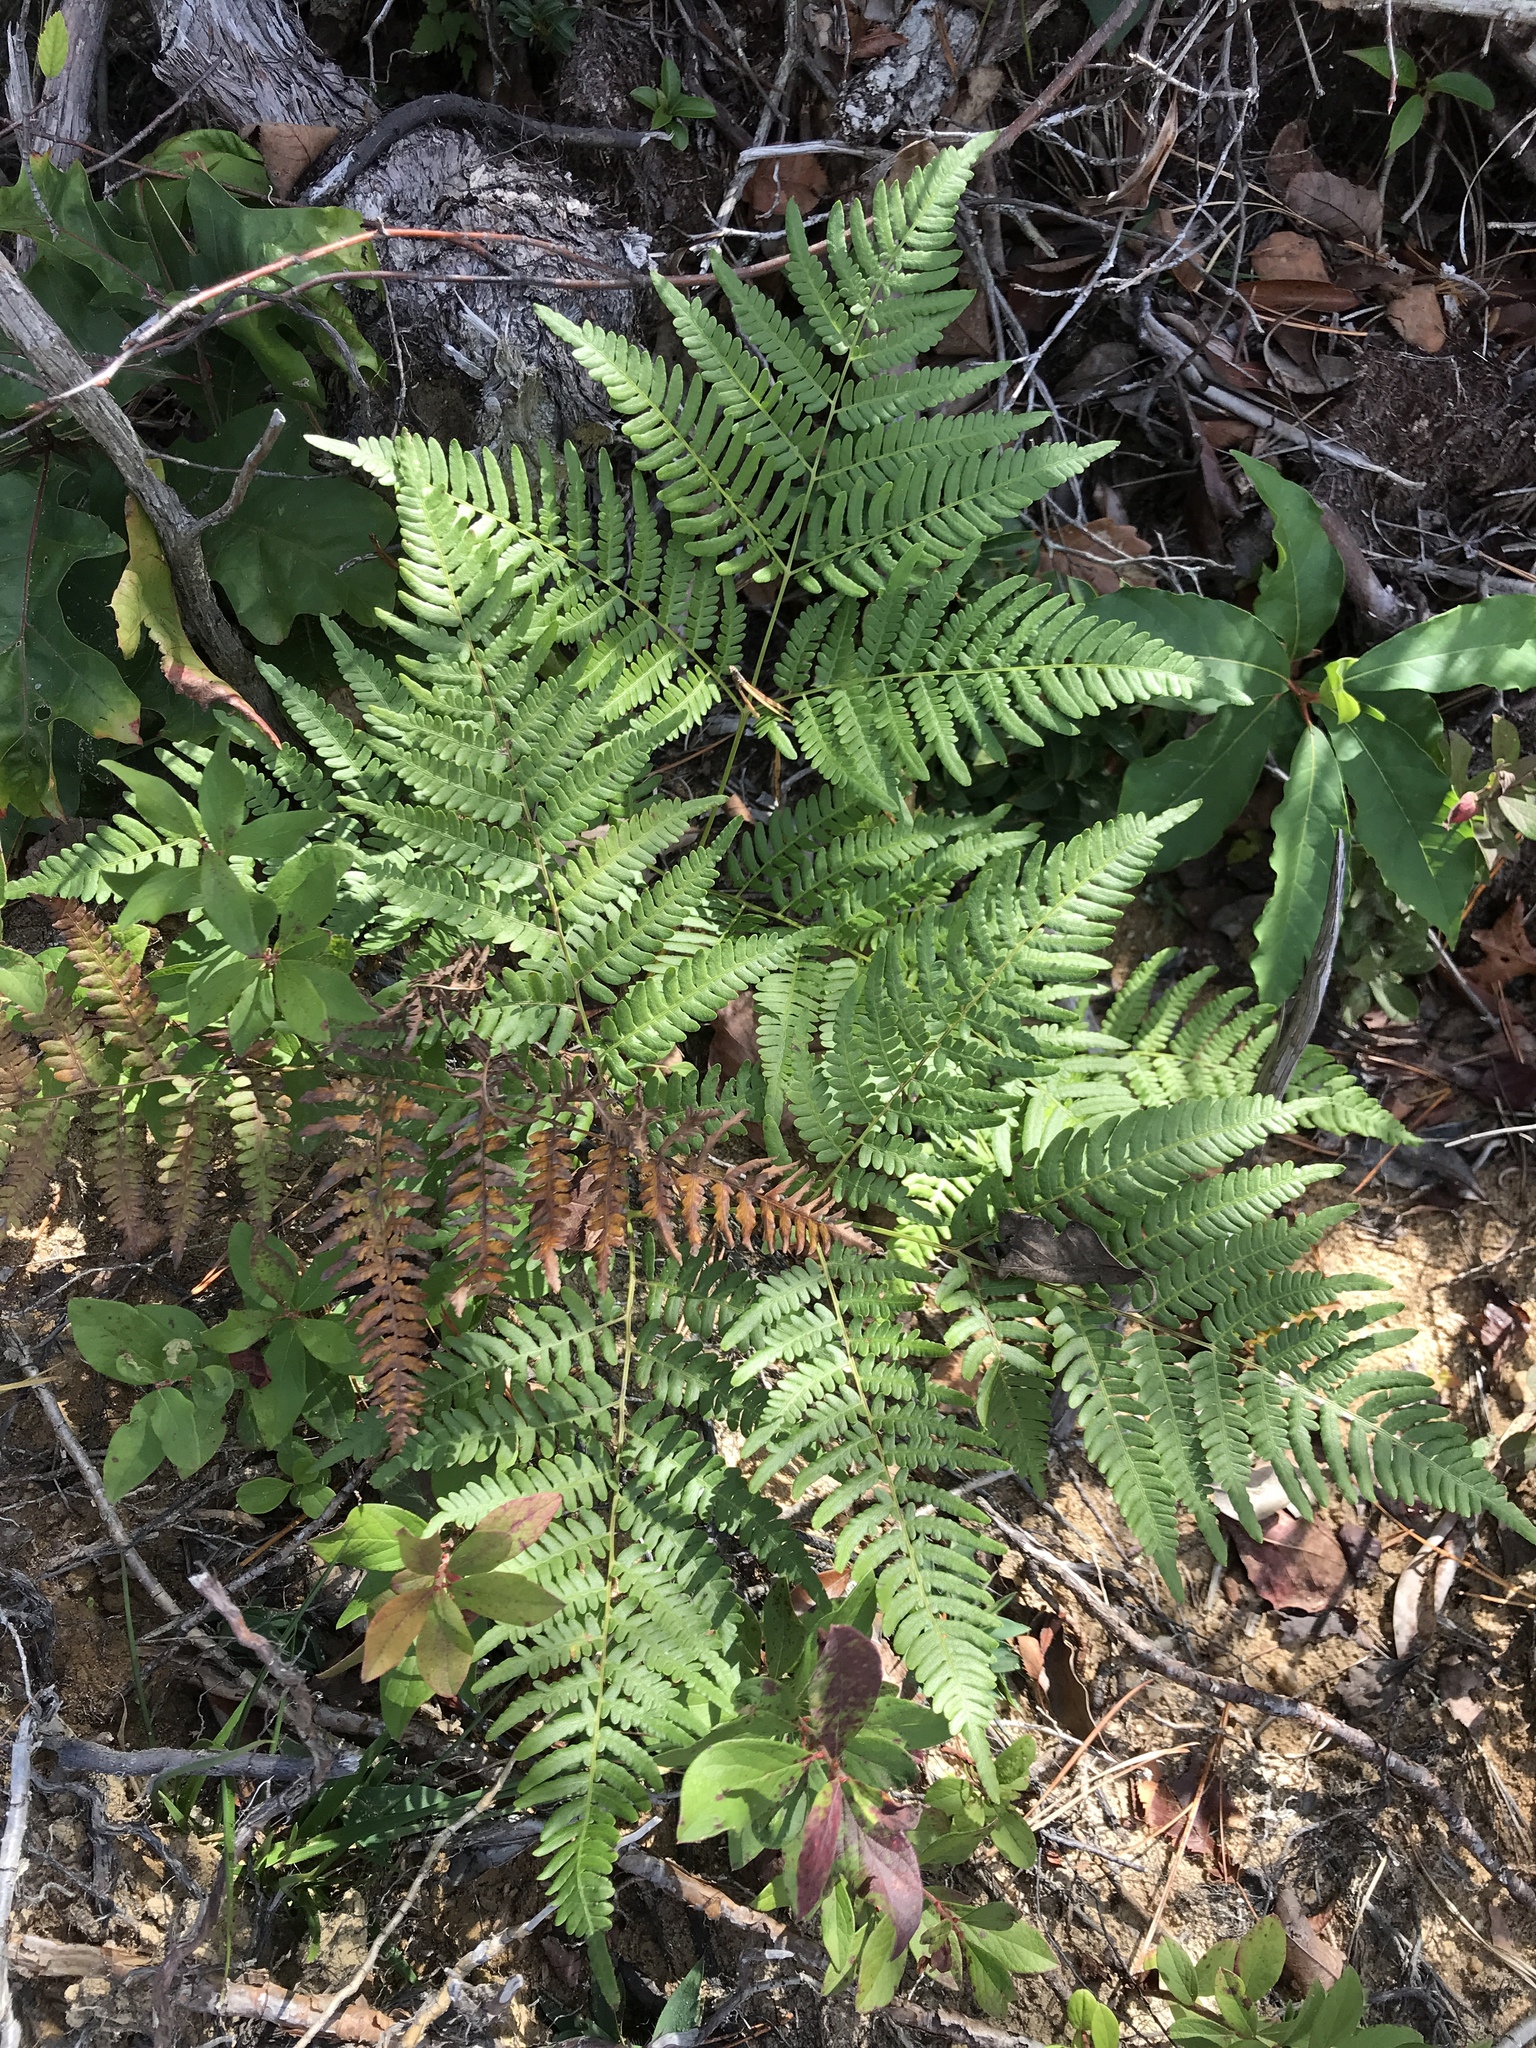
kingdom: Plantae
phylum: Tracheophyta
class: Polypodiopsida
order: Polypodiales
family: Dennstaedtiaceae
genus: Pteridium
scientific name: Pteridium aquilinum
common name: Bracken
